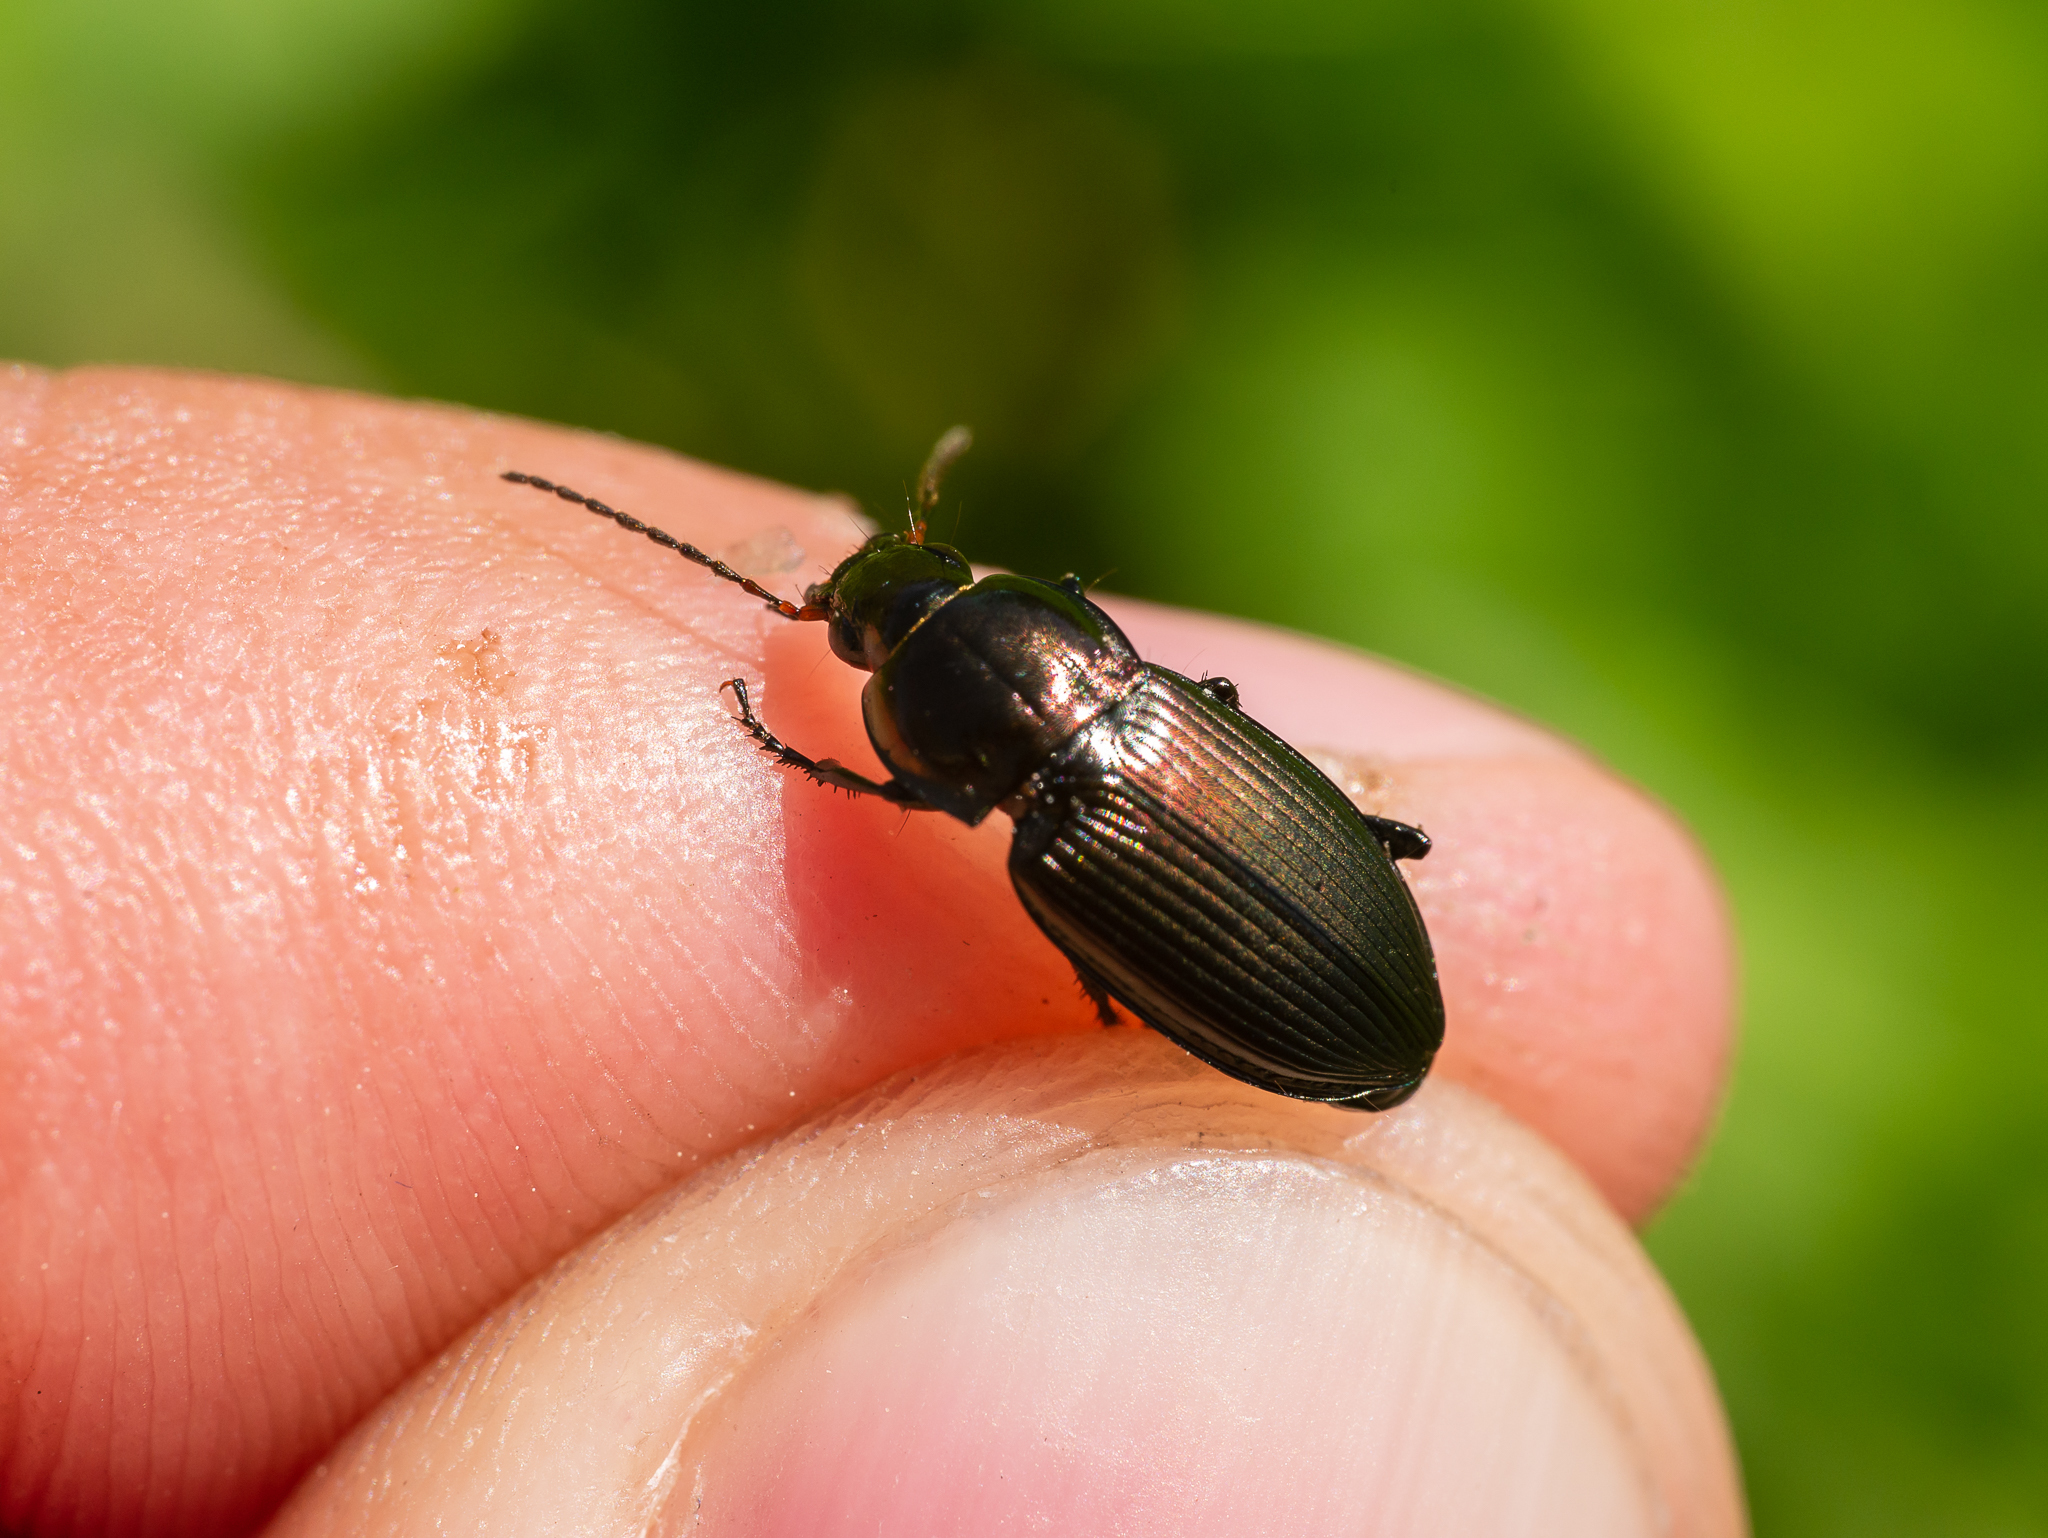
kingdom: Animalia
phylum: Arthropoda
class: Insecta
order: Coleoptera
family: Carabidae
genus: Poecilus
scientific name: Poecilus versicolor
